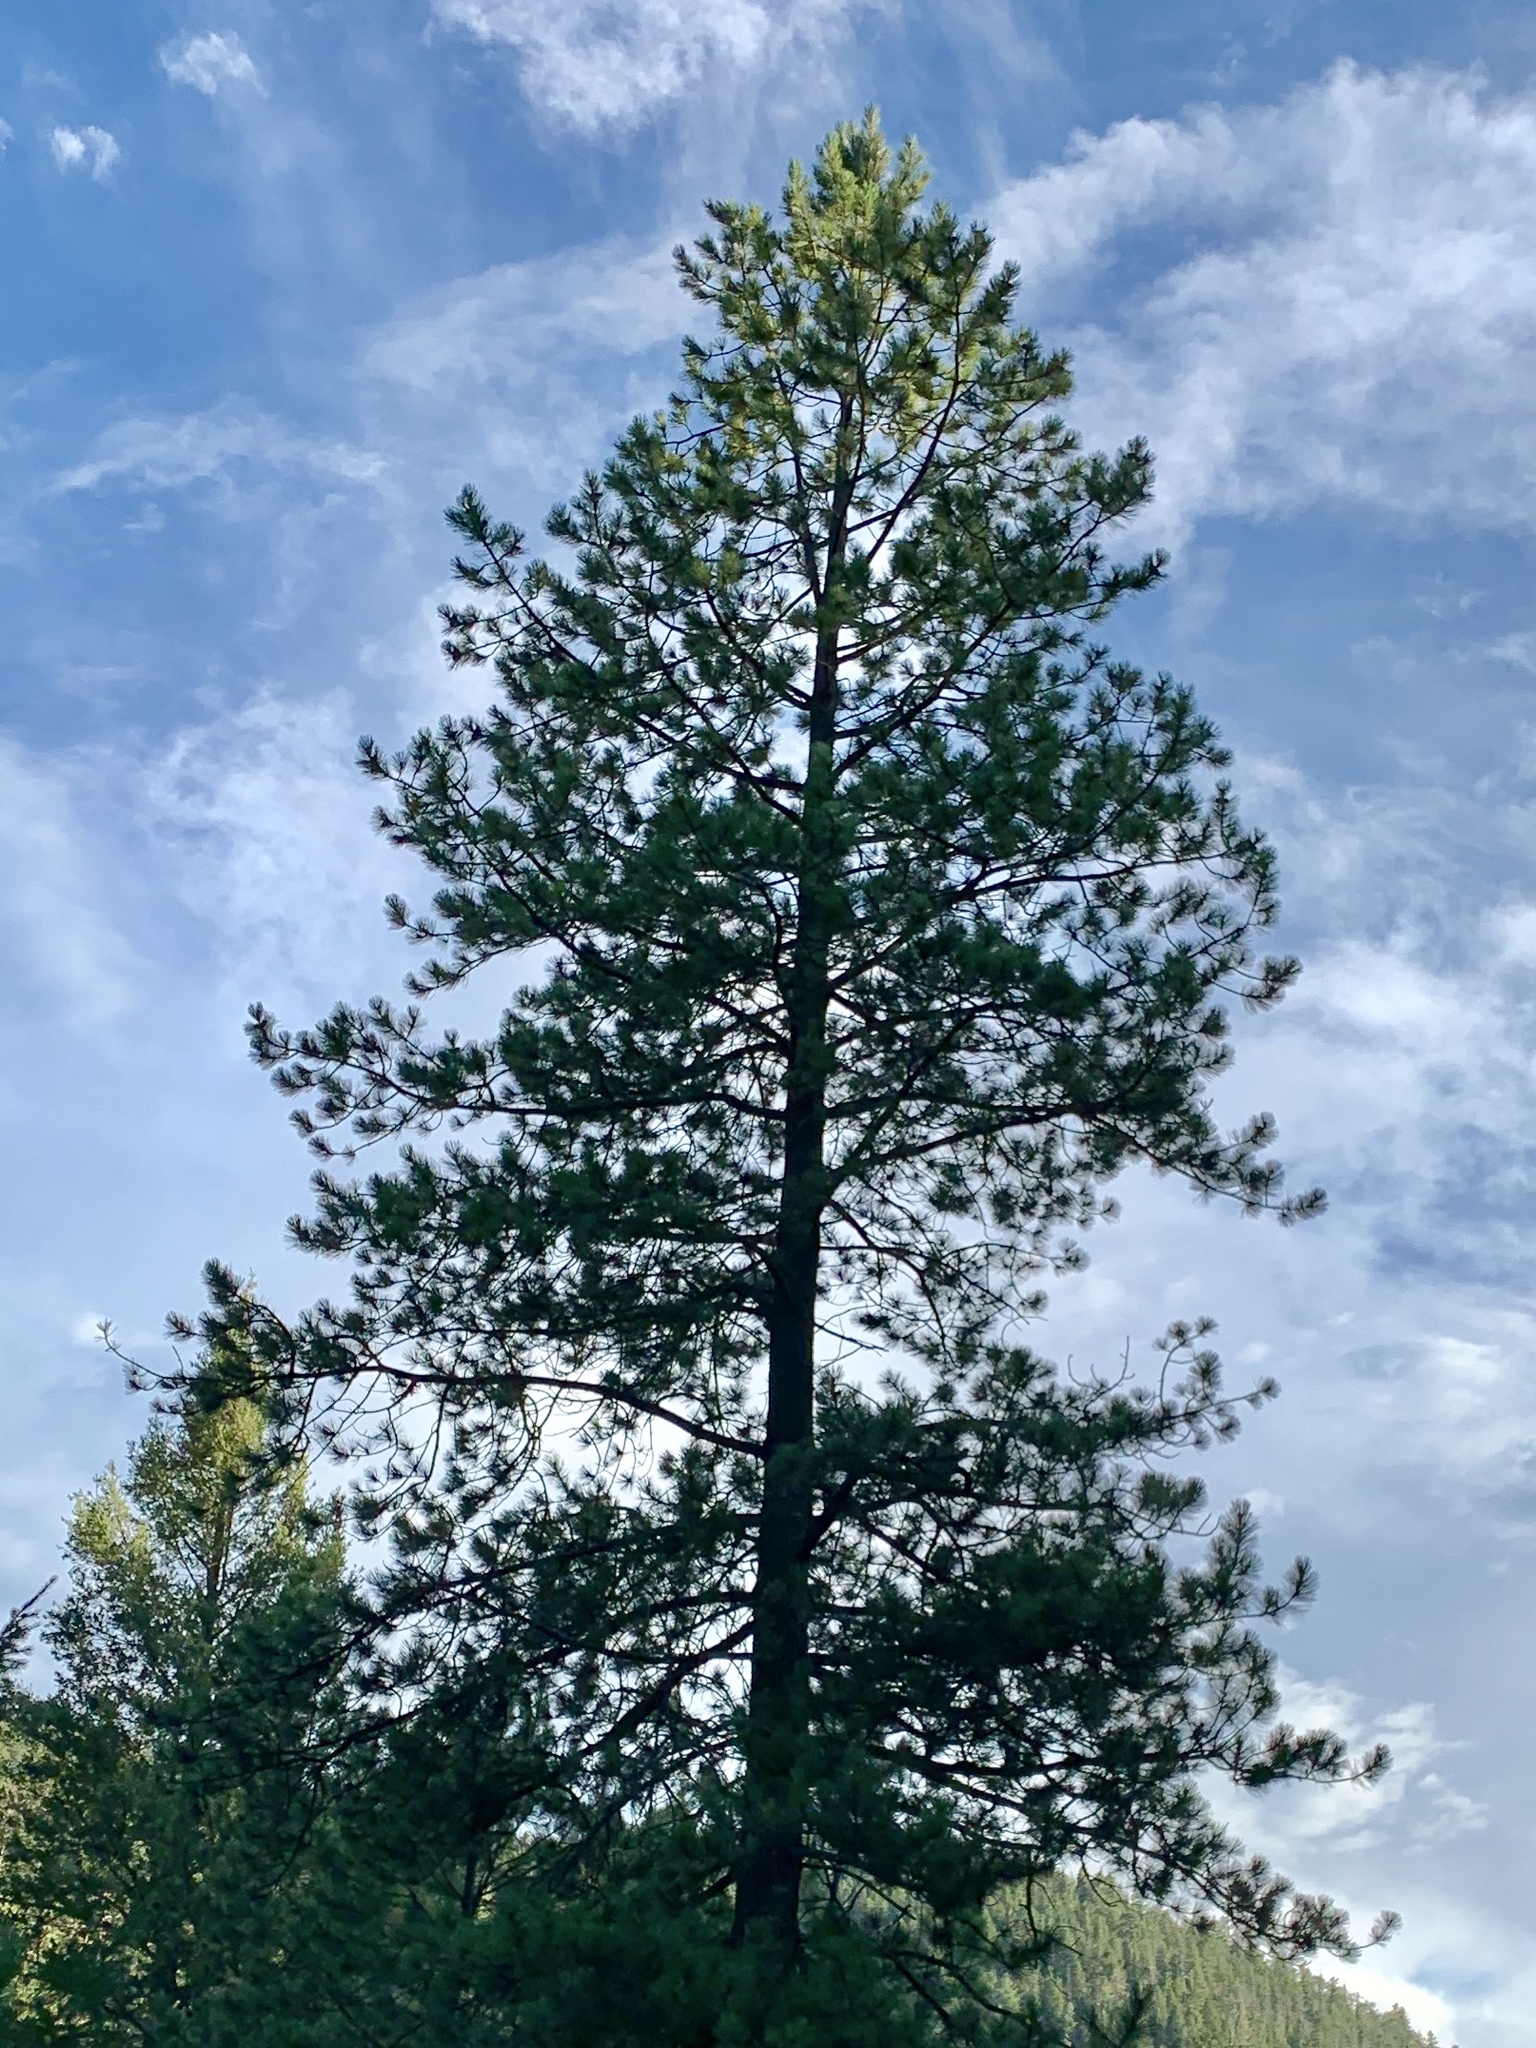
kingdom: Plantae
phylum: Tracheophyta
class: Pinopsida
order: Pinales
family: Pinaceae
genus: Pinus
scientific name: Pinus ponderosa
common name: Western yellow-pine
